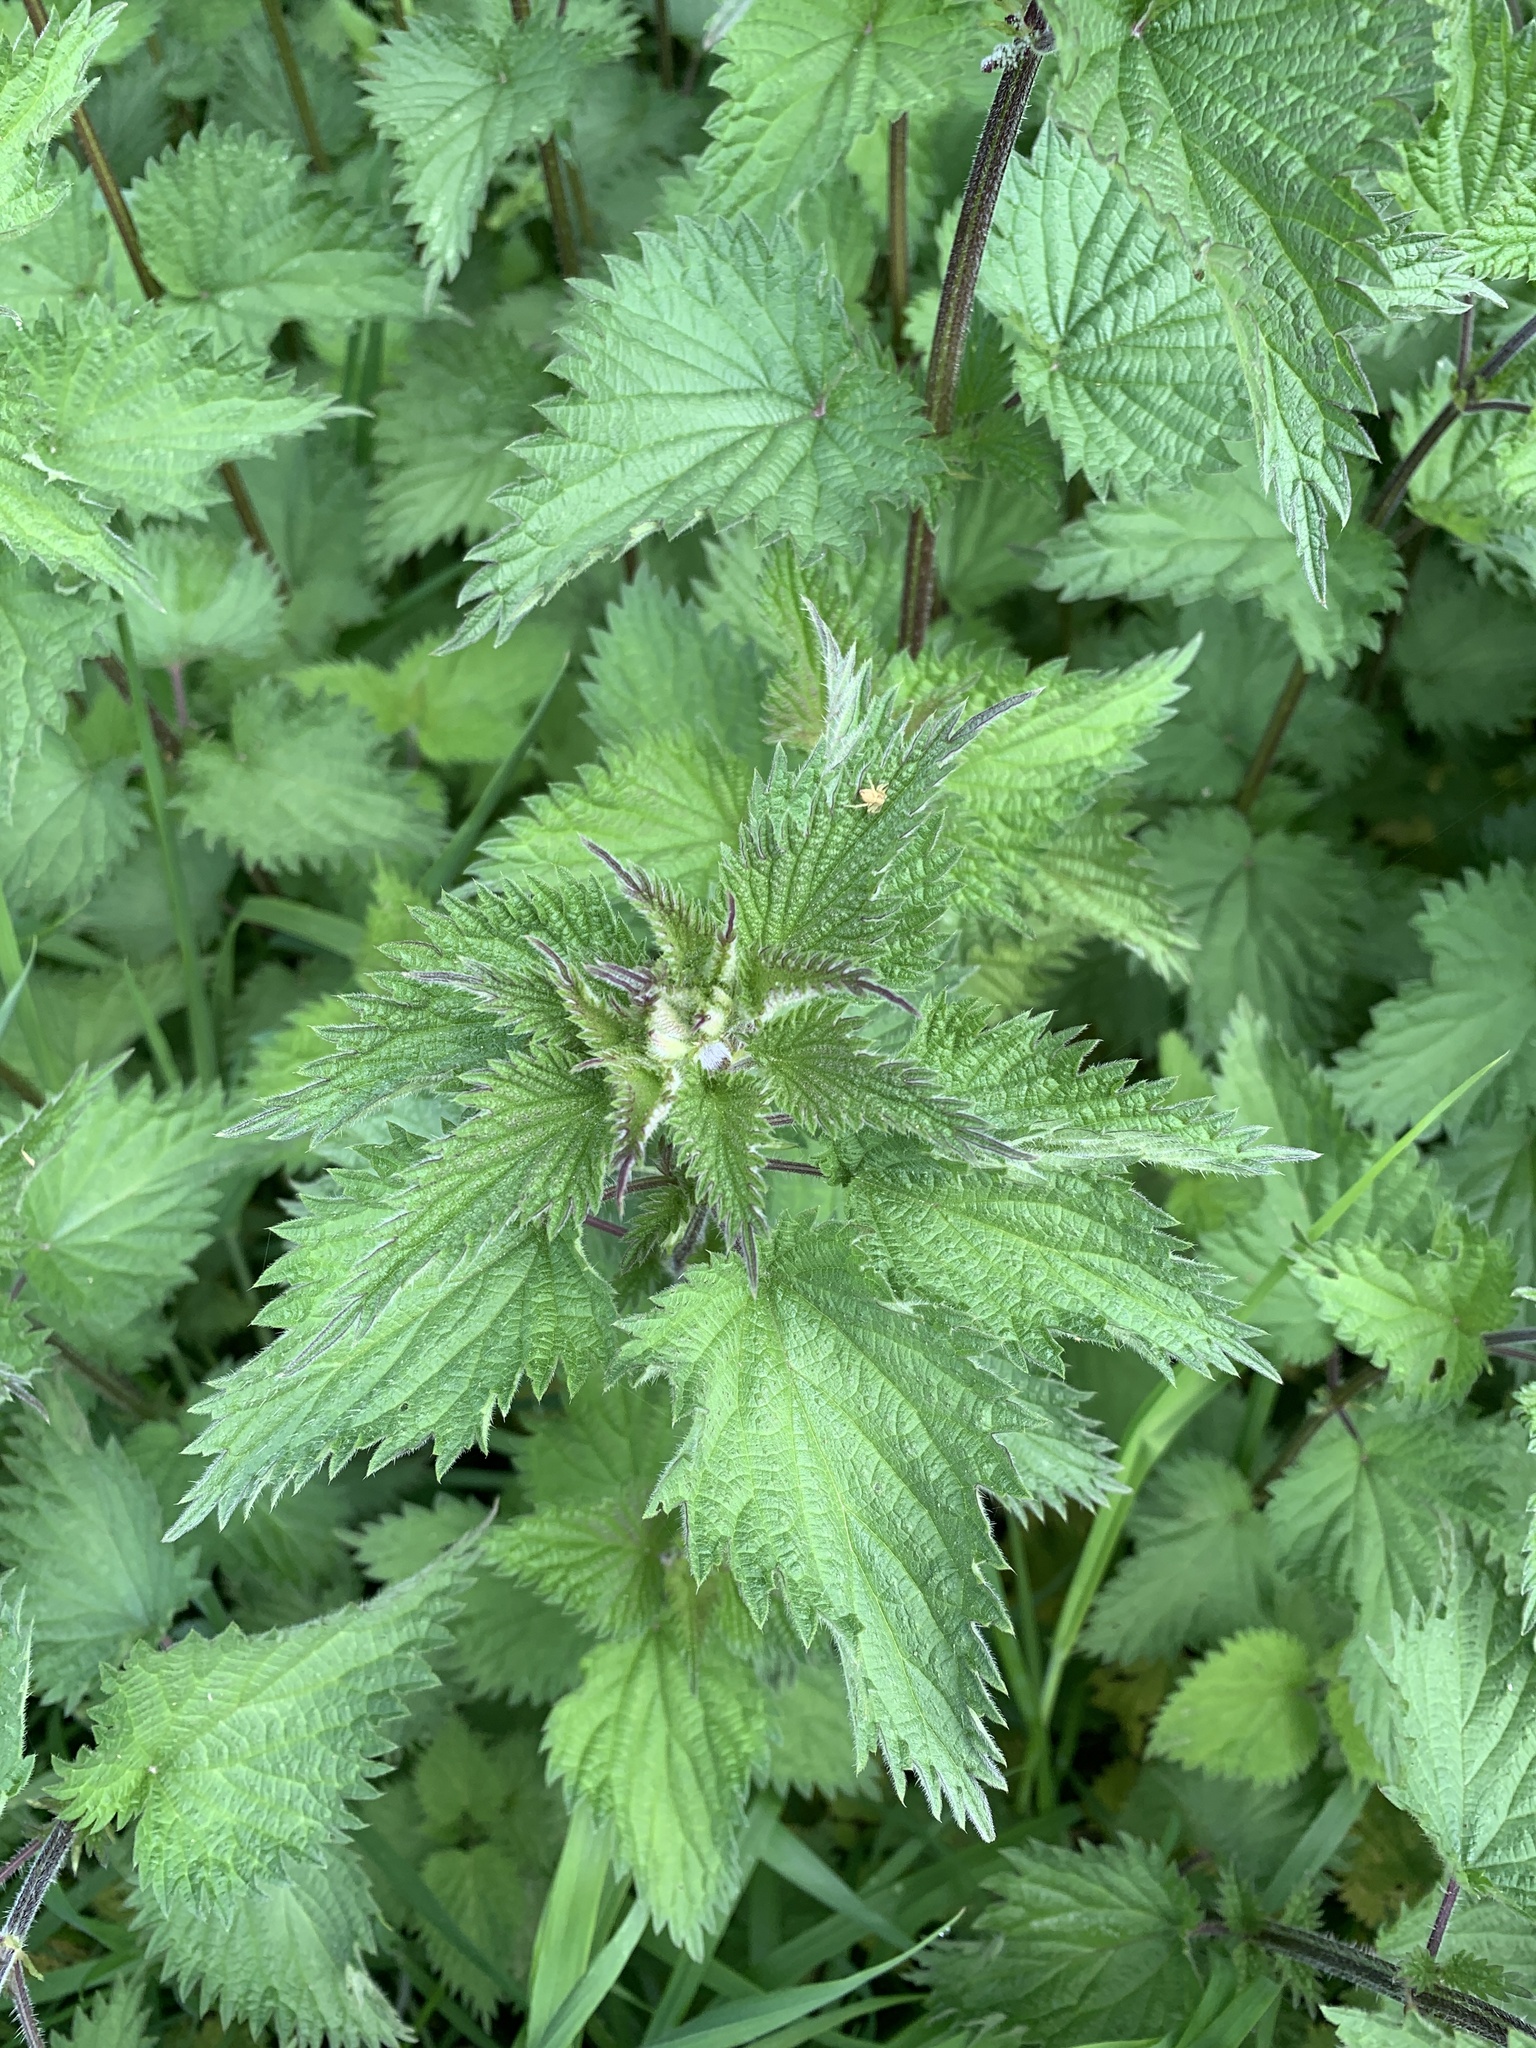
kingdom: Plantae
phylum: Tracheophyta
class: Magnoliopsida
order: Rosales
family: Urticaceae
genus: Urtica
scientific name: Urtica dioica
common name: Common nettle
